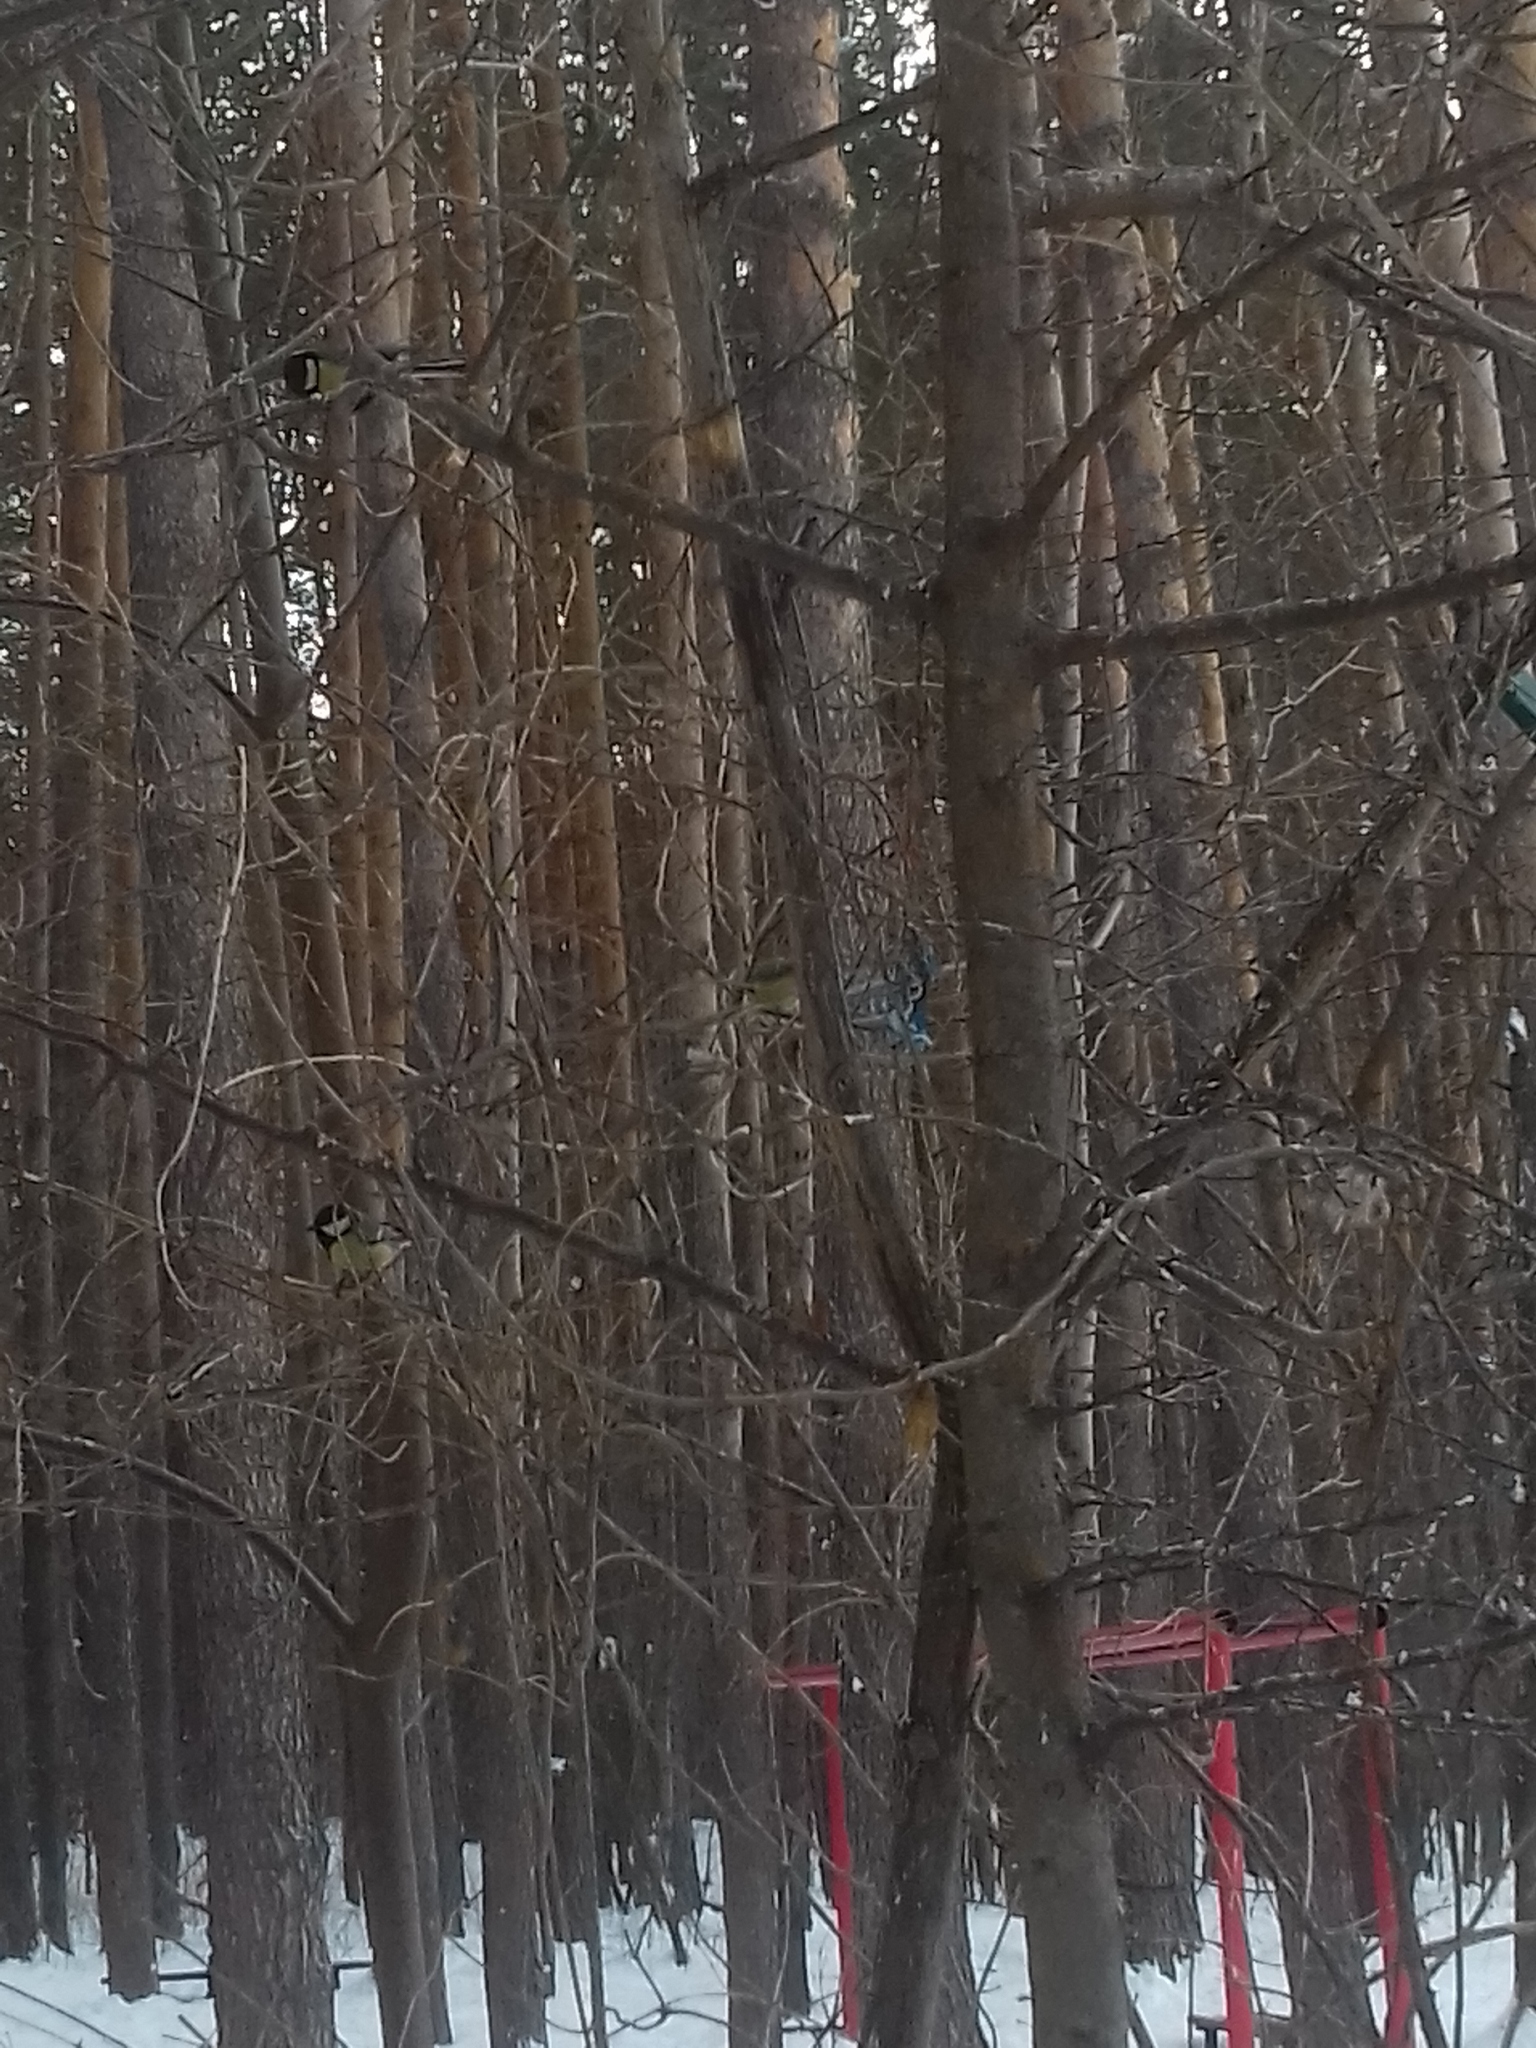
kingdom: Animalia
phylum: Chordata
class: Aves
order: Passeriformes
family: Paridae
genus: Parus
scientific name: Parus major
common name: Great tit
